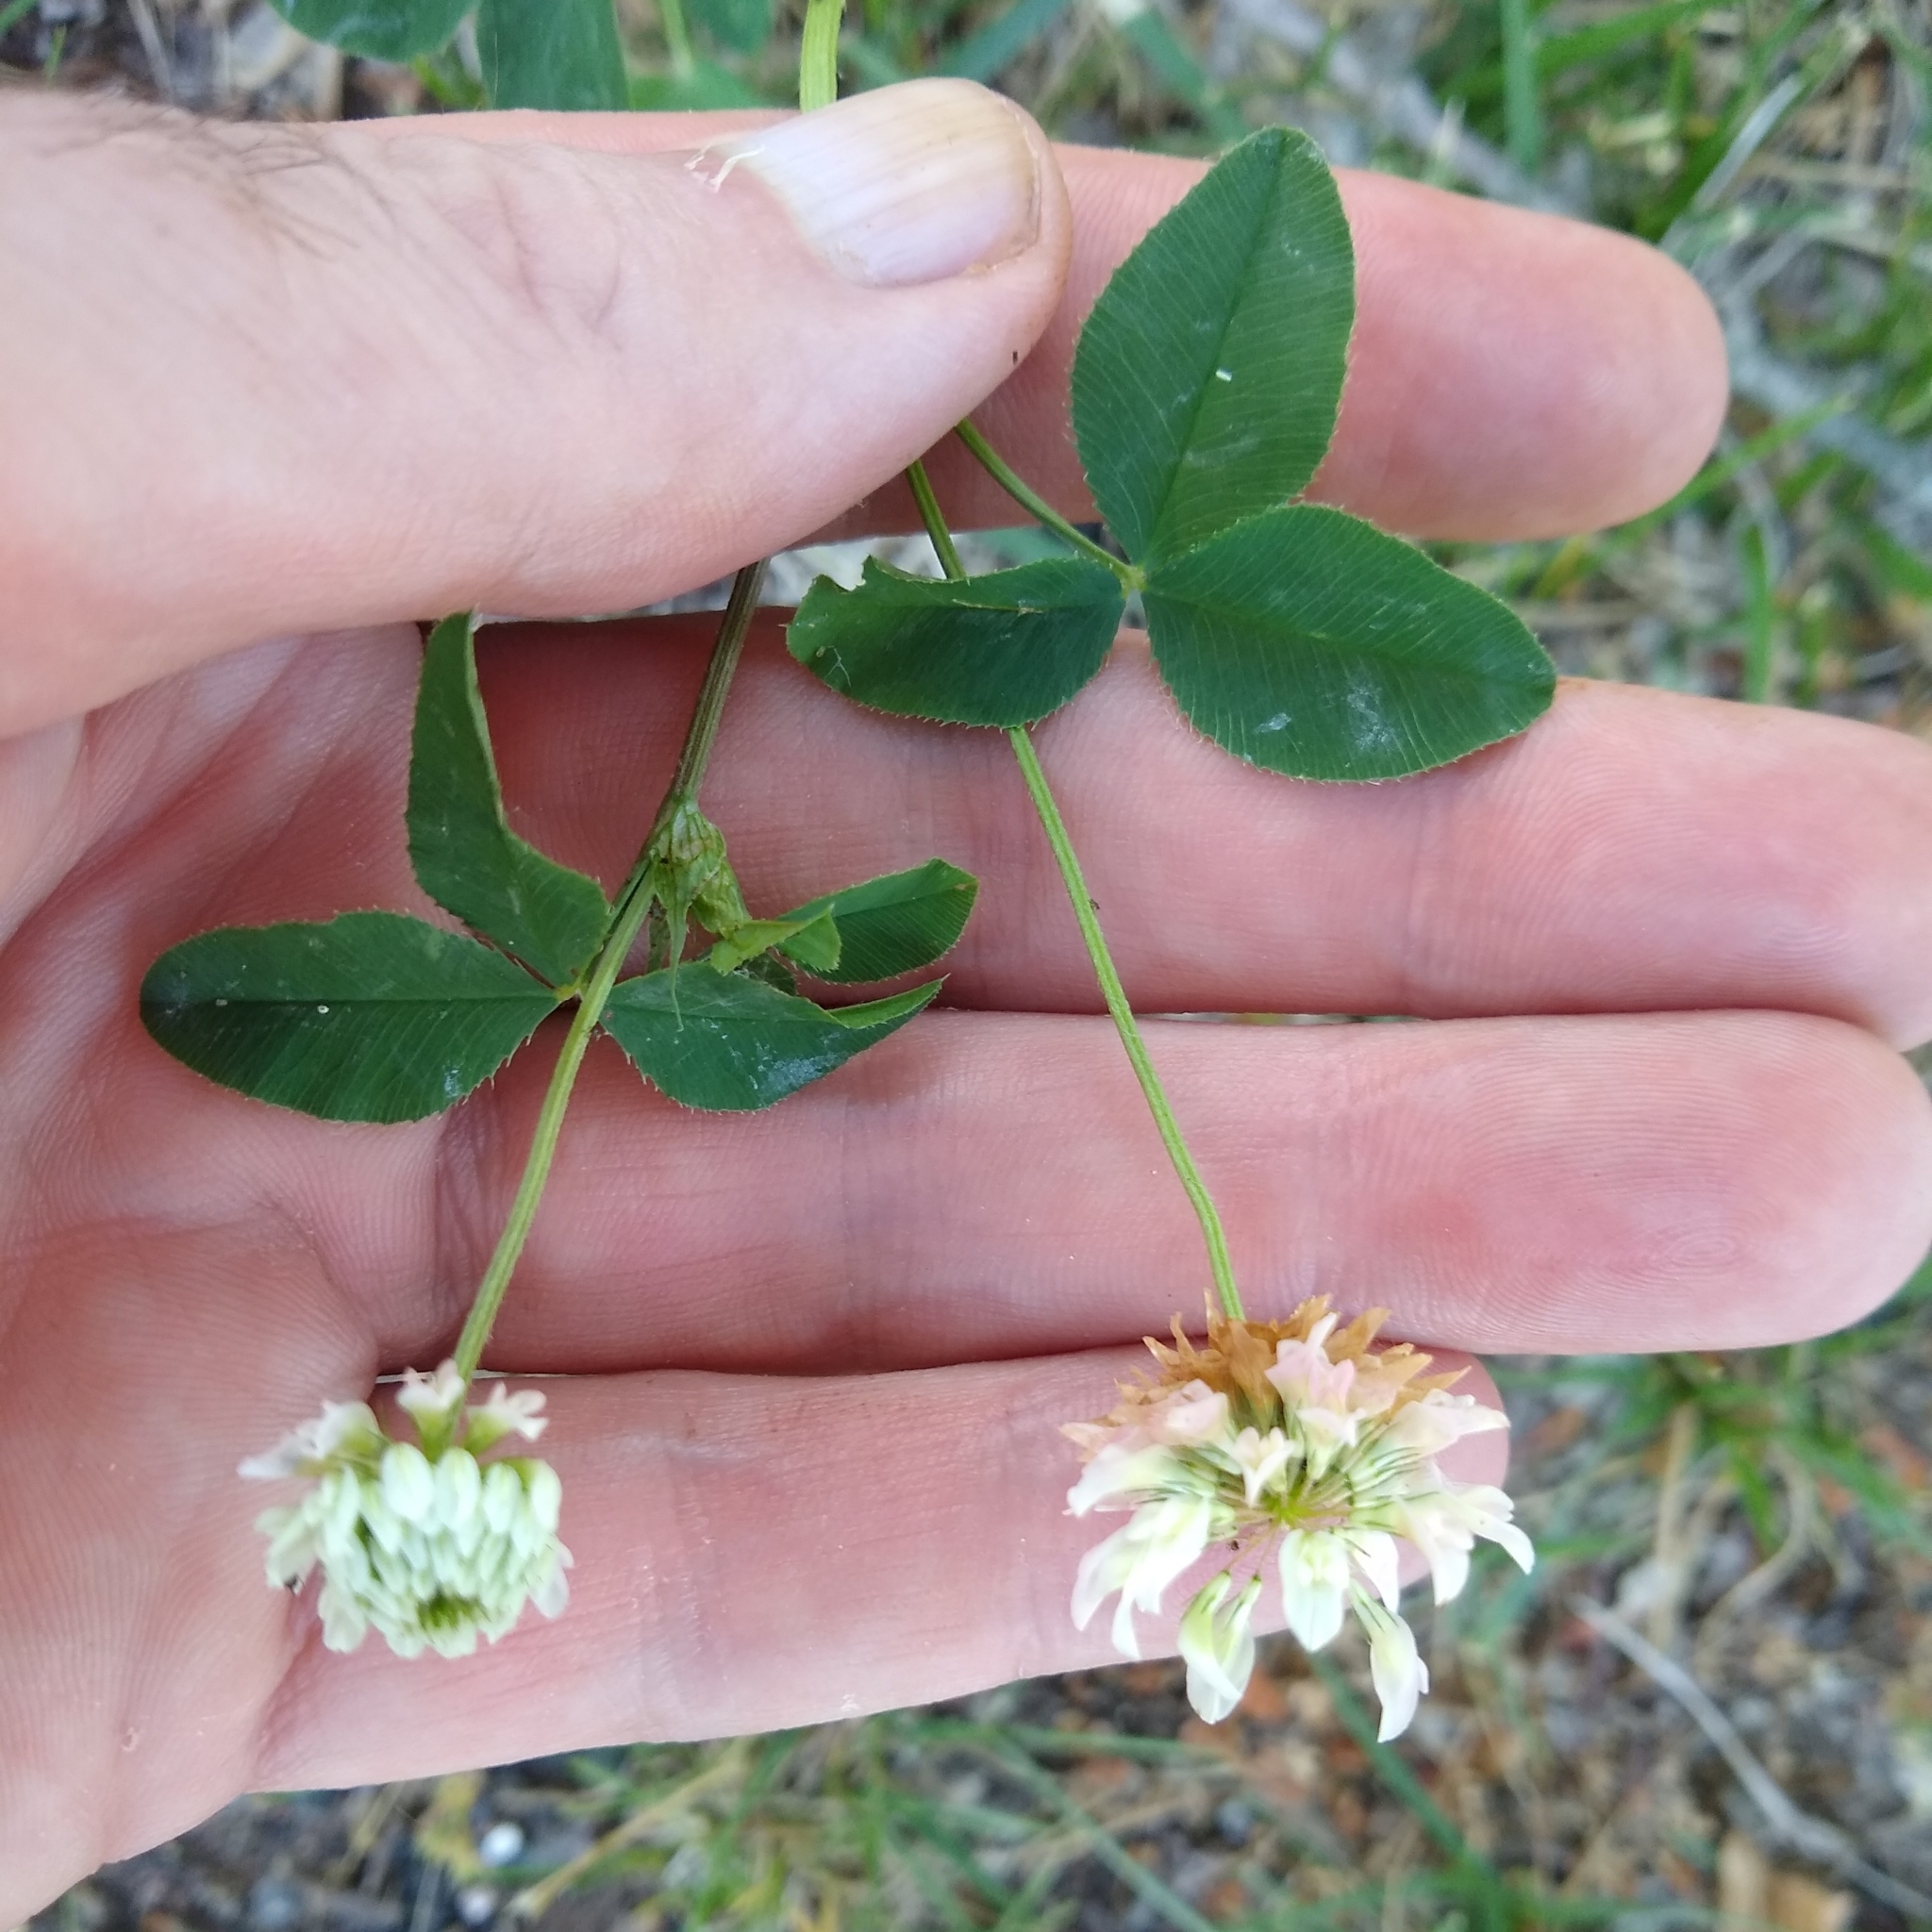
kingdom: Plantae
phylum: Tracheophyta
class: Magnoliopsida
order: Fabales
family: Fabaceae
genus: Trifolium
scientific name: Trifolium hybridum
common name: Alsike clover
